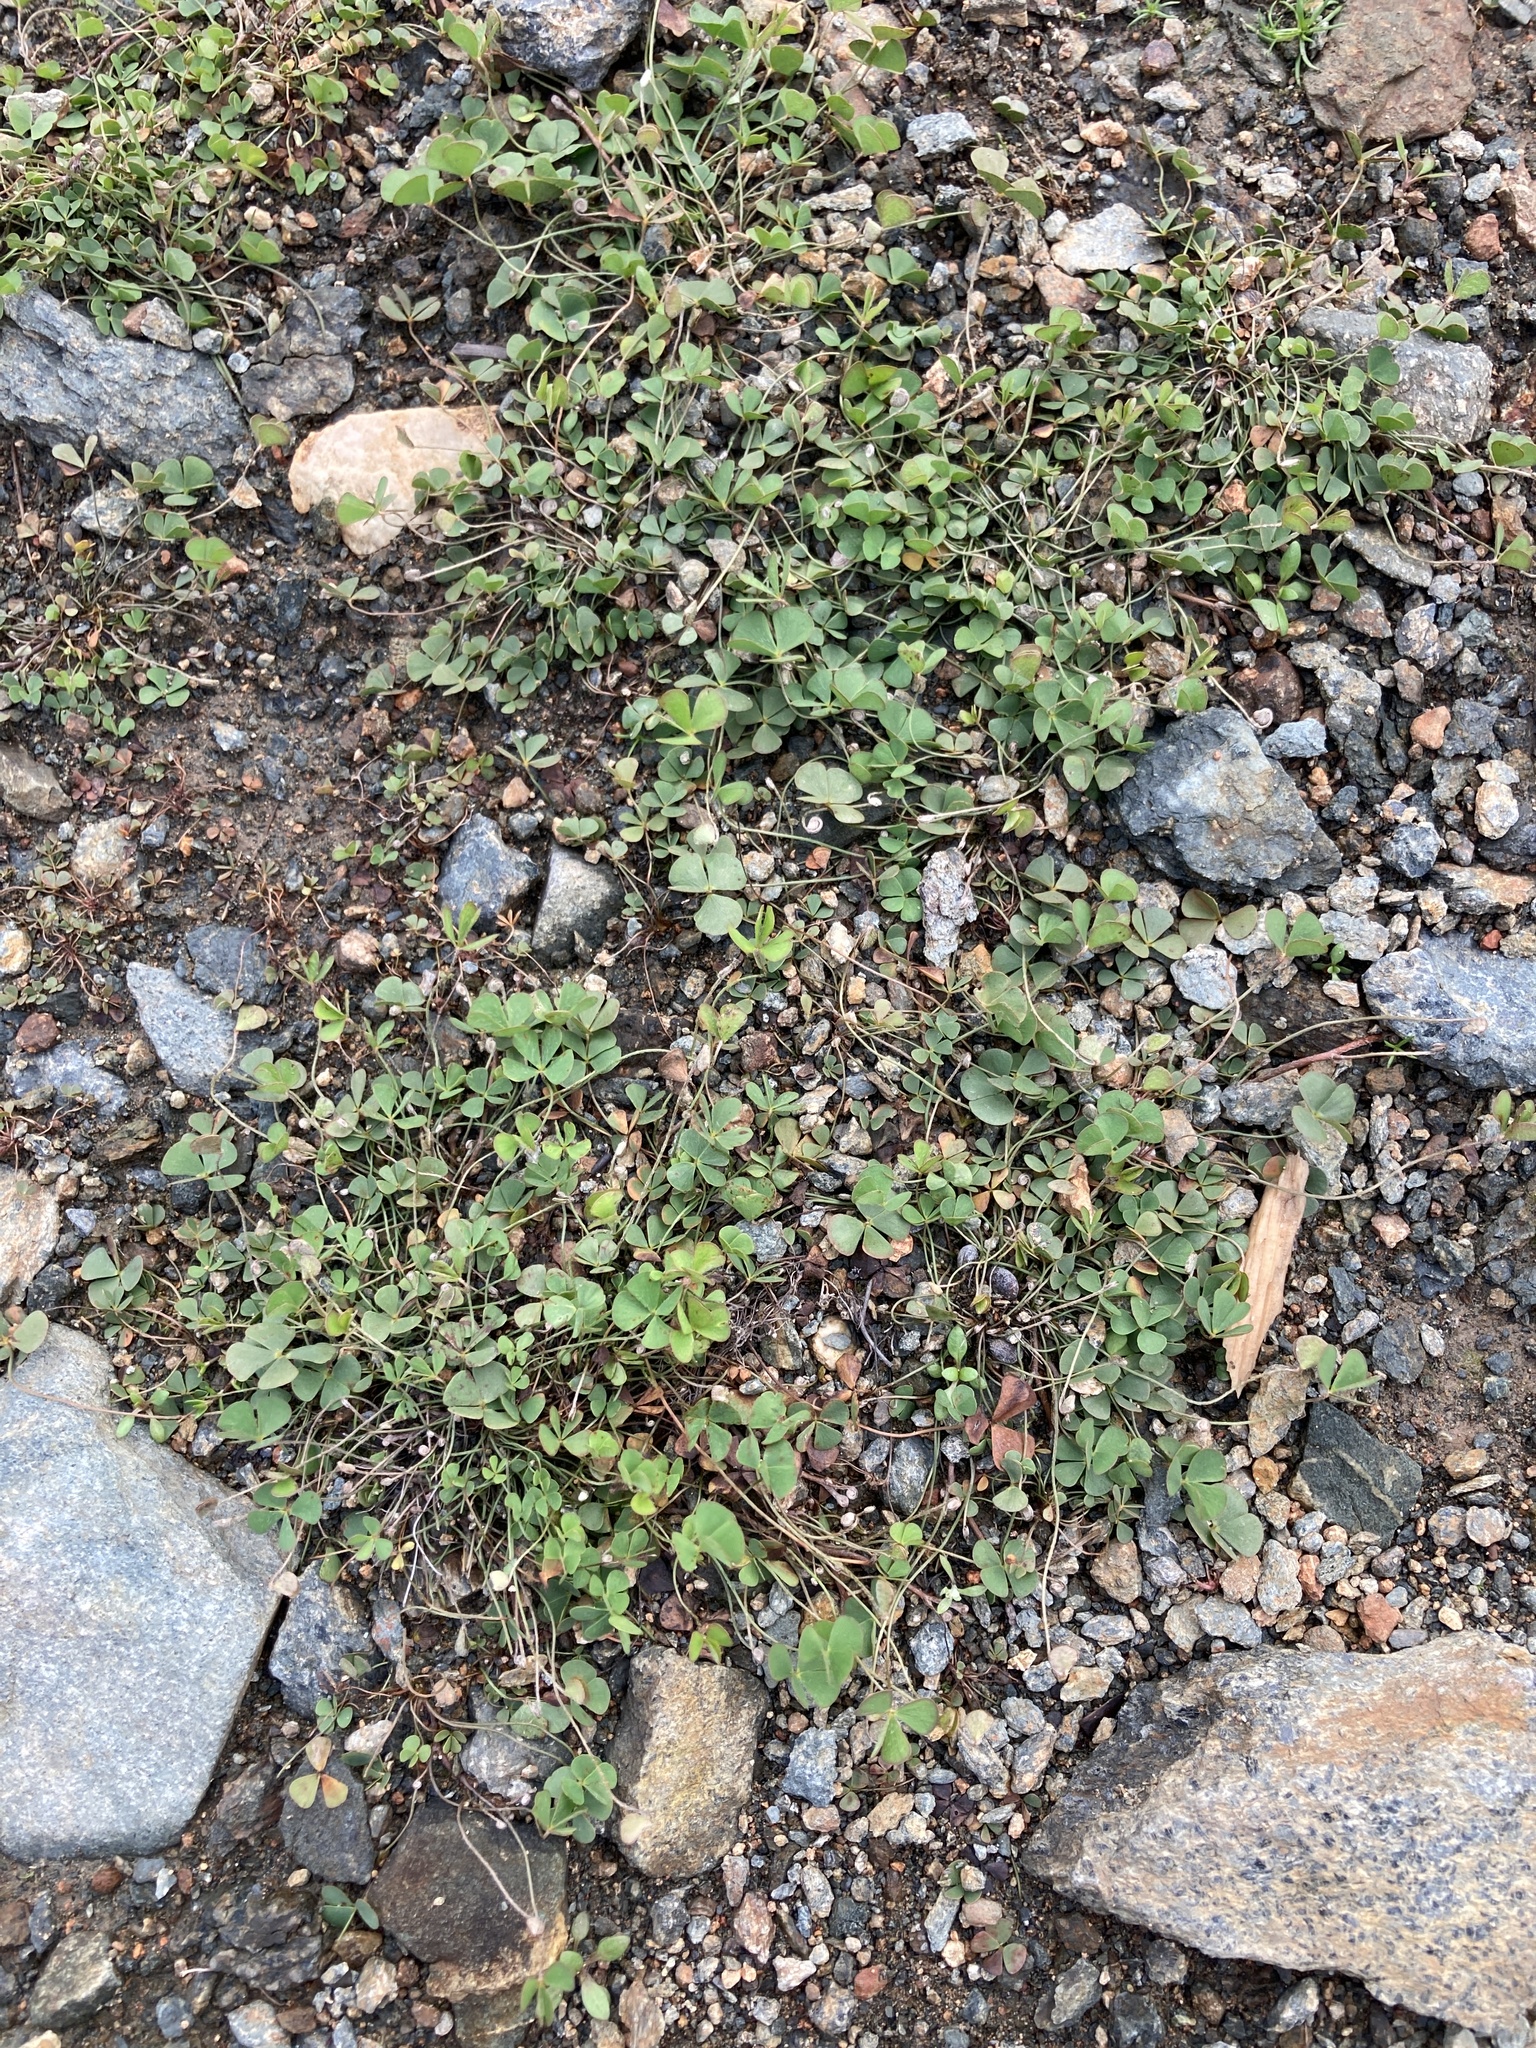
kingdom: Plantae
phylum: Tracheophyta
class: Polypodiopsida
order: Salviniales
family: Marsileaceae
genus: Marsilea
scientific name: Marsilea vestita
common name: Hooked-pepperwort
